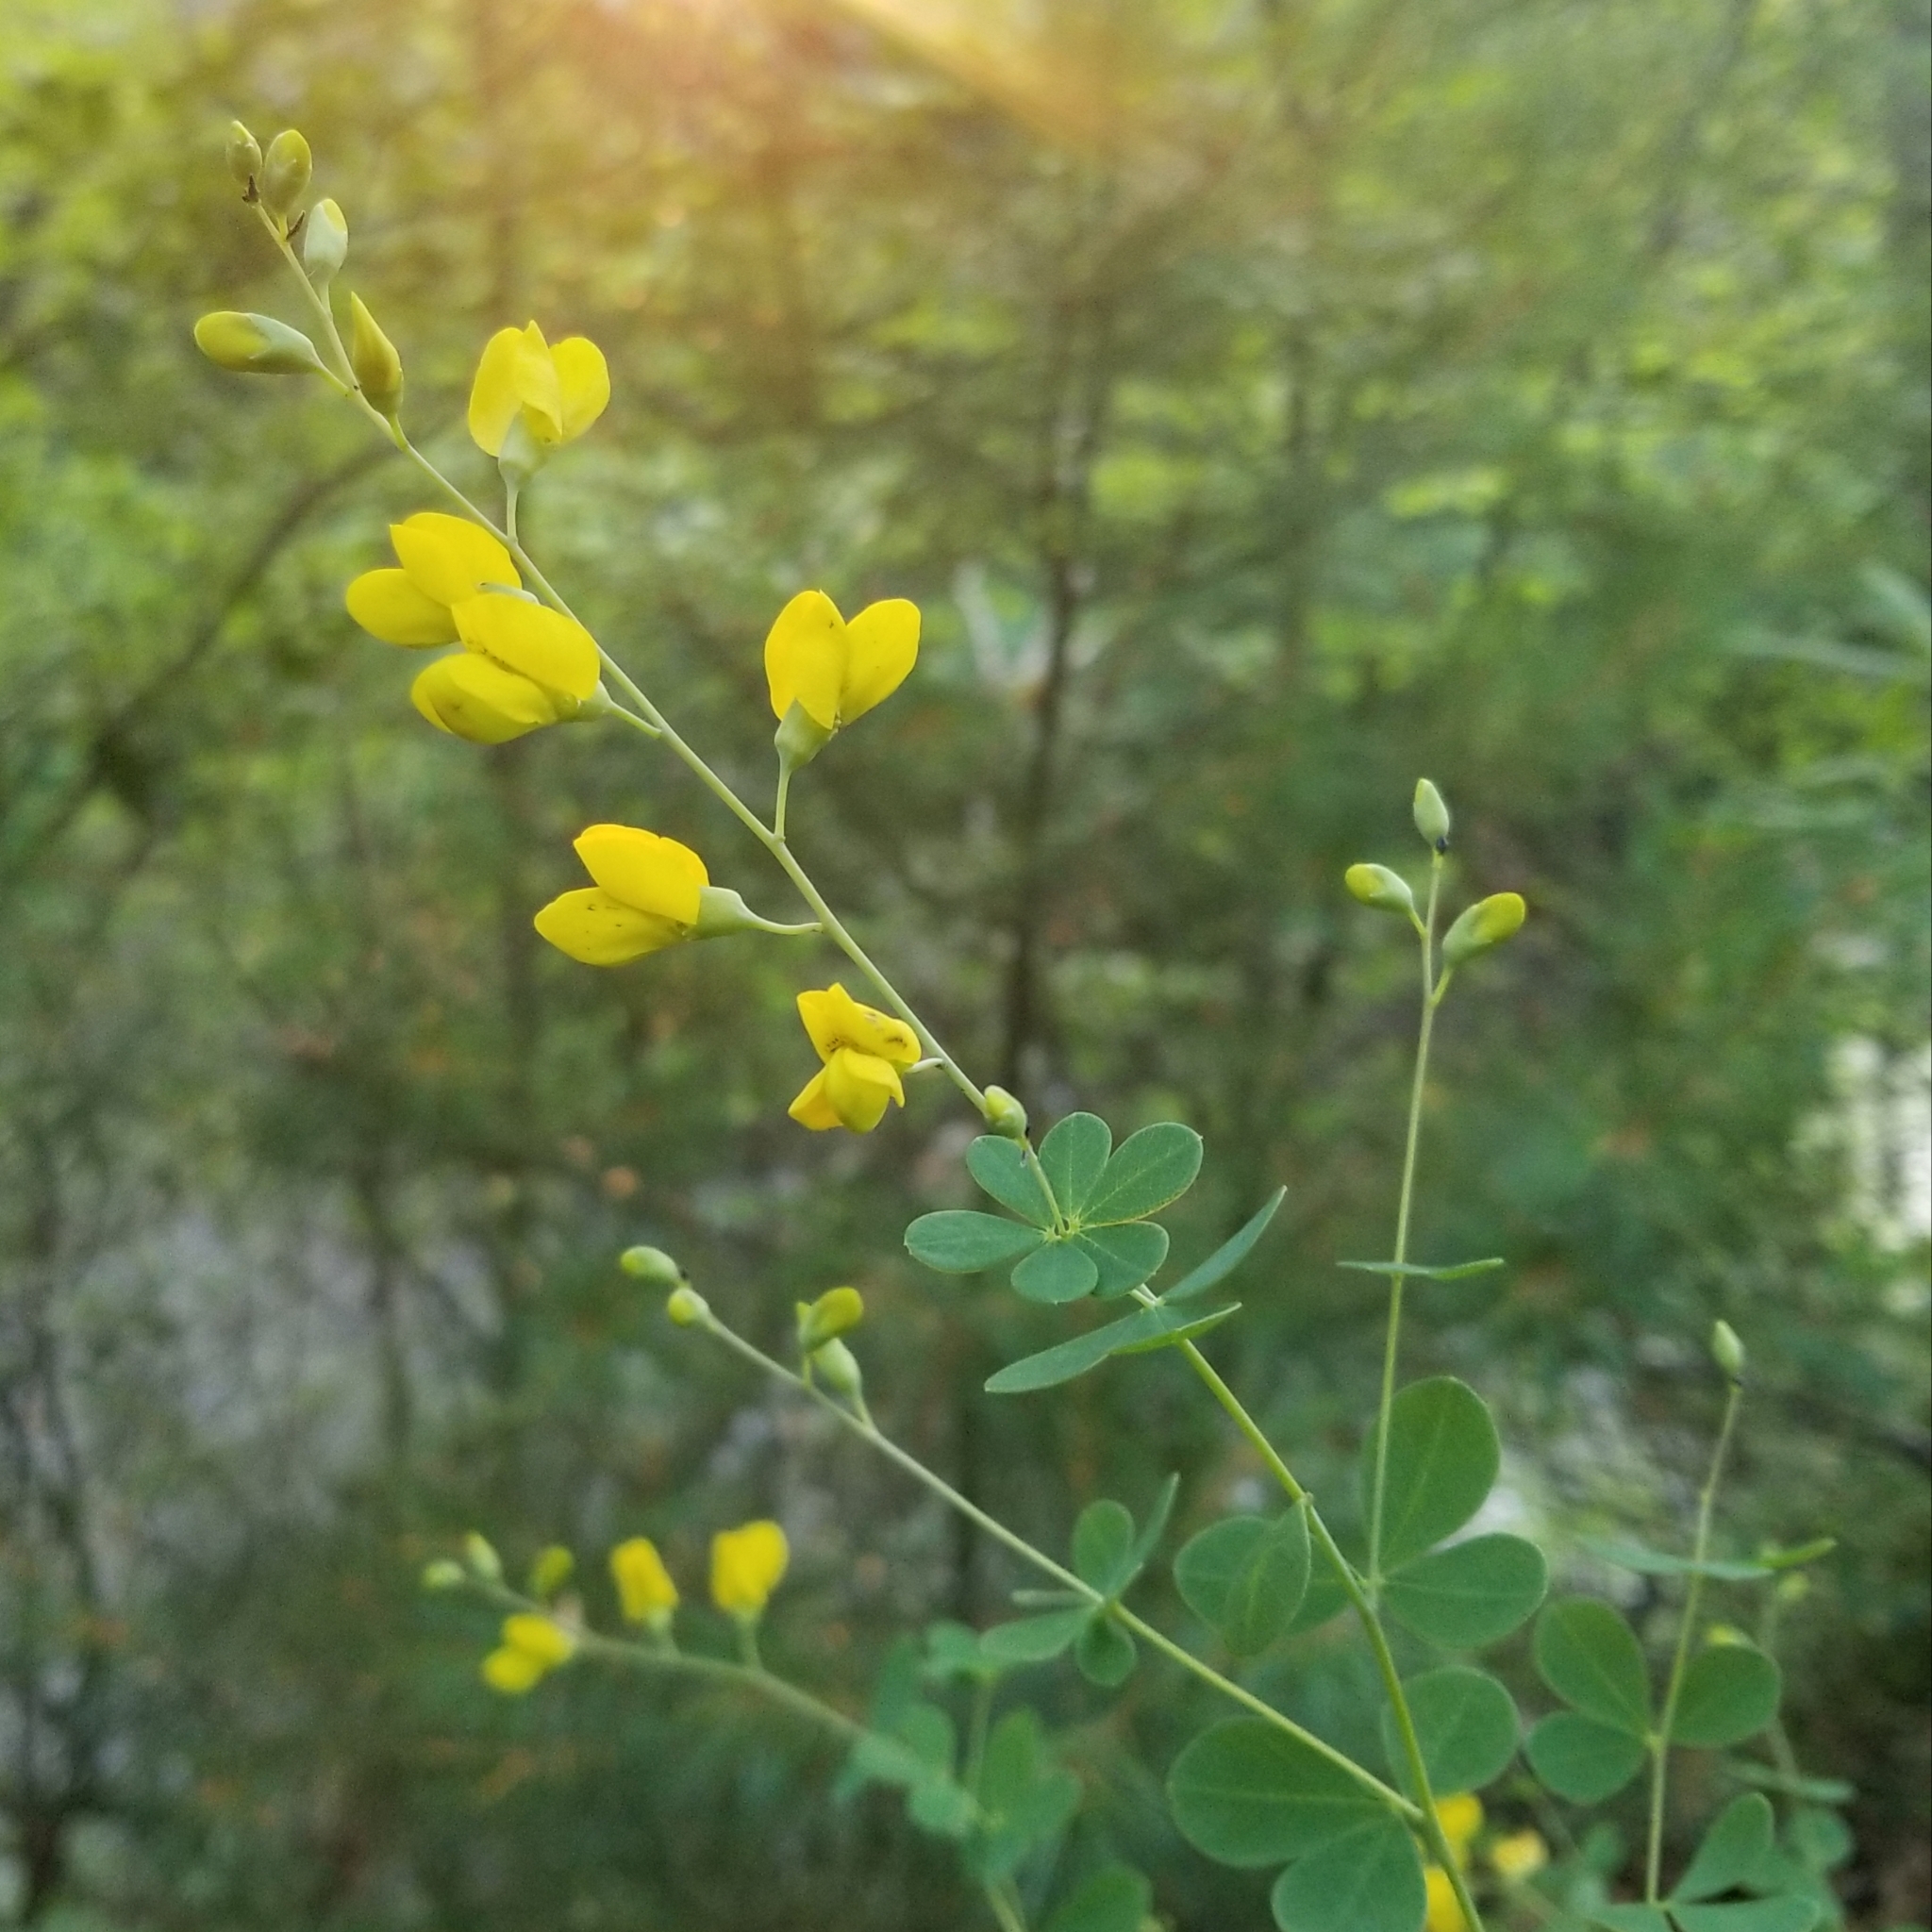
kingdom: Plantae
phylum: Tracheophyta
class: Magnoliopsida
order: Fabales
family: Fabaceae
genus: Baptisia
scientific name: Baptisia tinctoria
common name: Wild indigo
